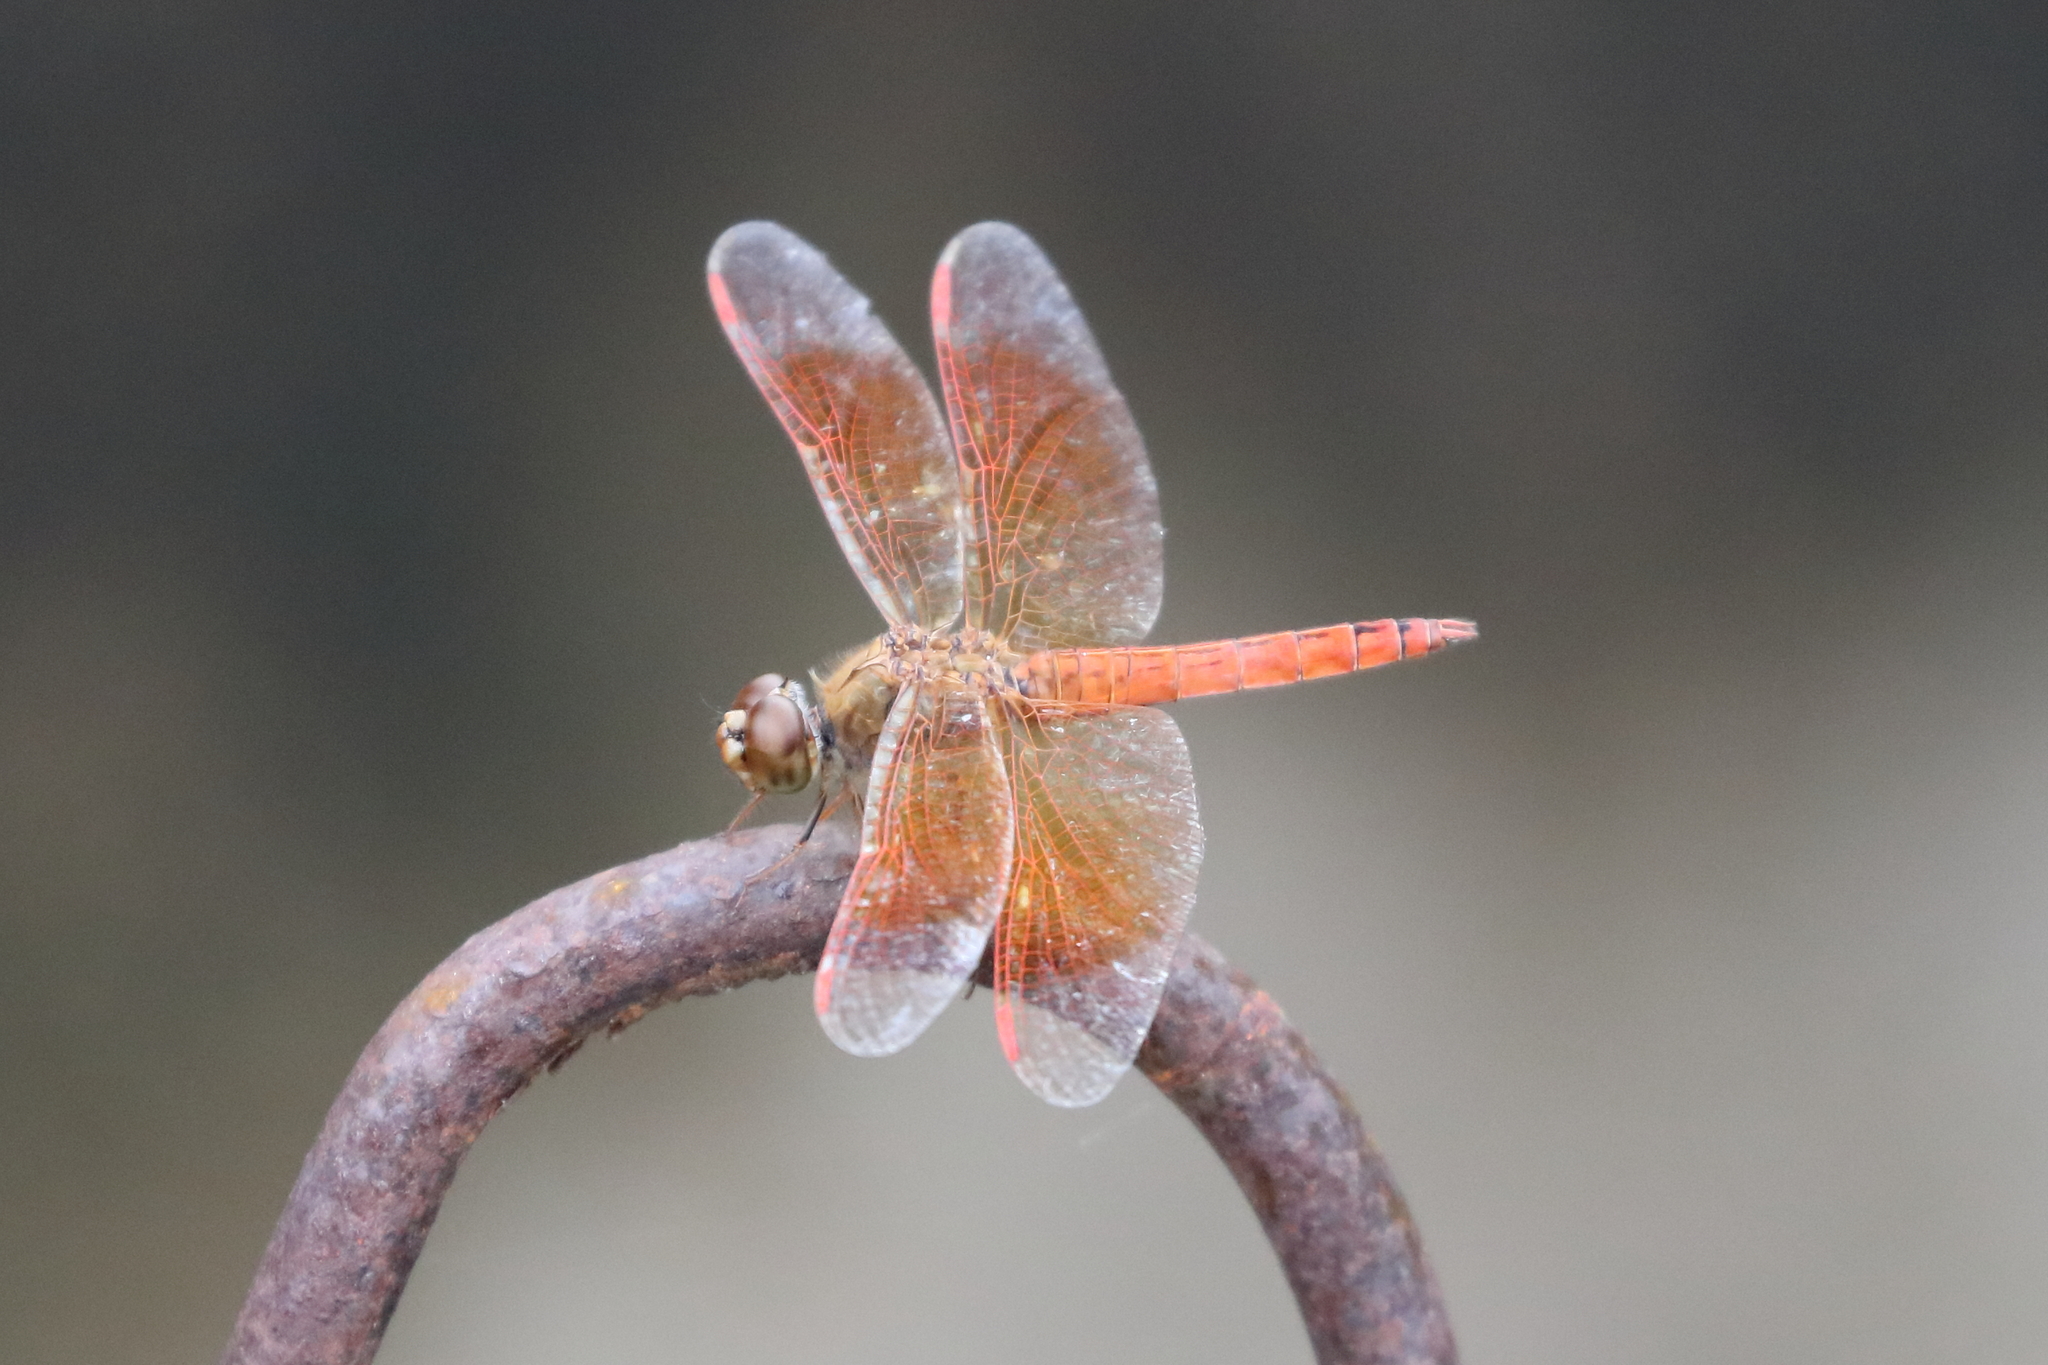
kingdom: Animalia
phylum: Arthropoda
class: Insecta
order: Odonata
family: Libellulidae
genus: Brachythemis
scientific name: Brachythemis contaminata
